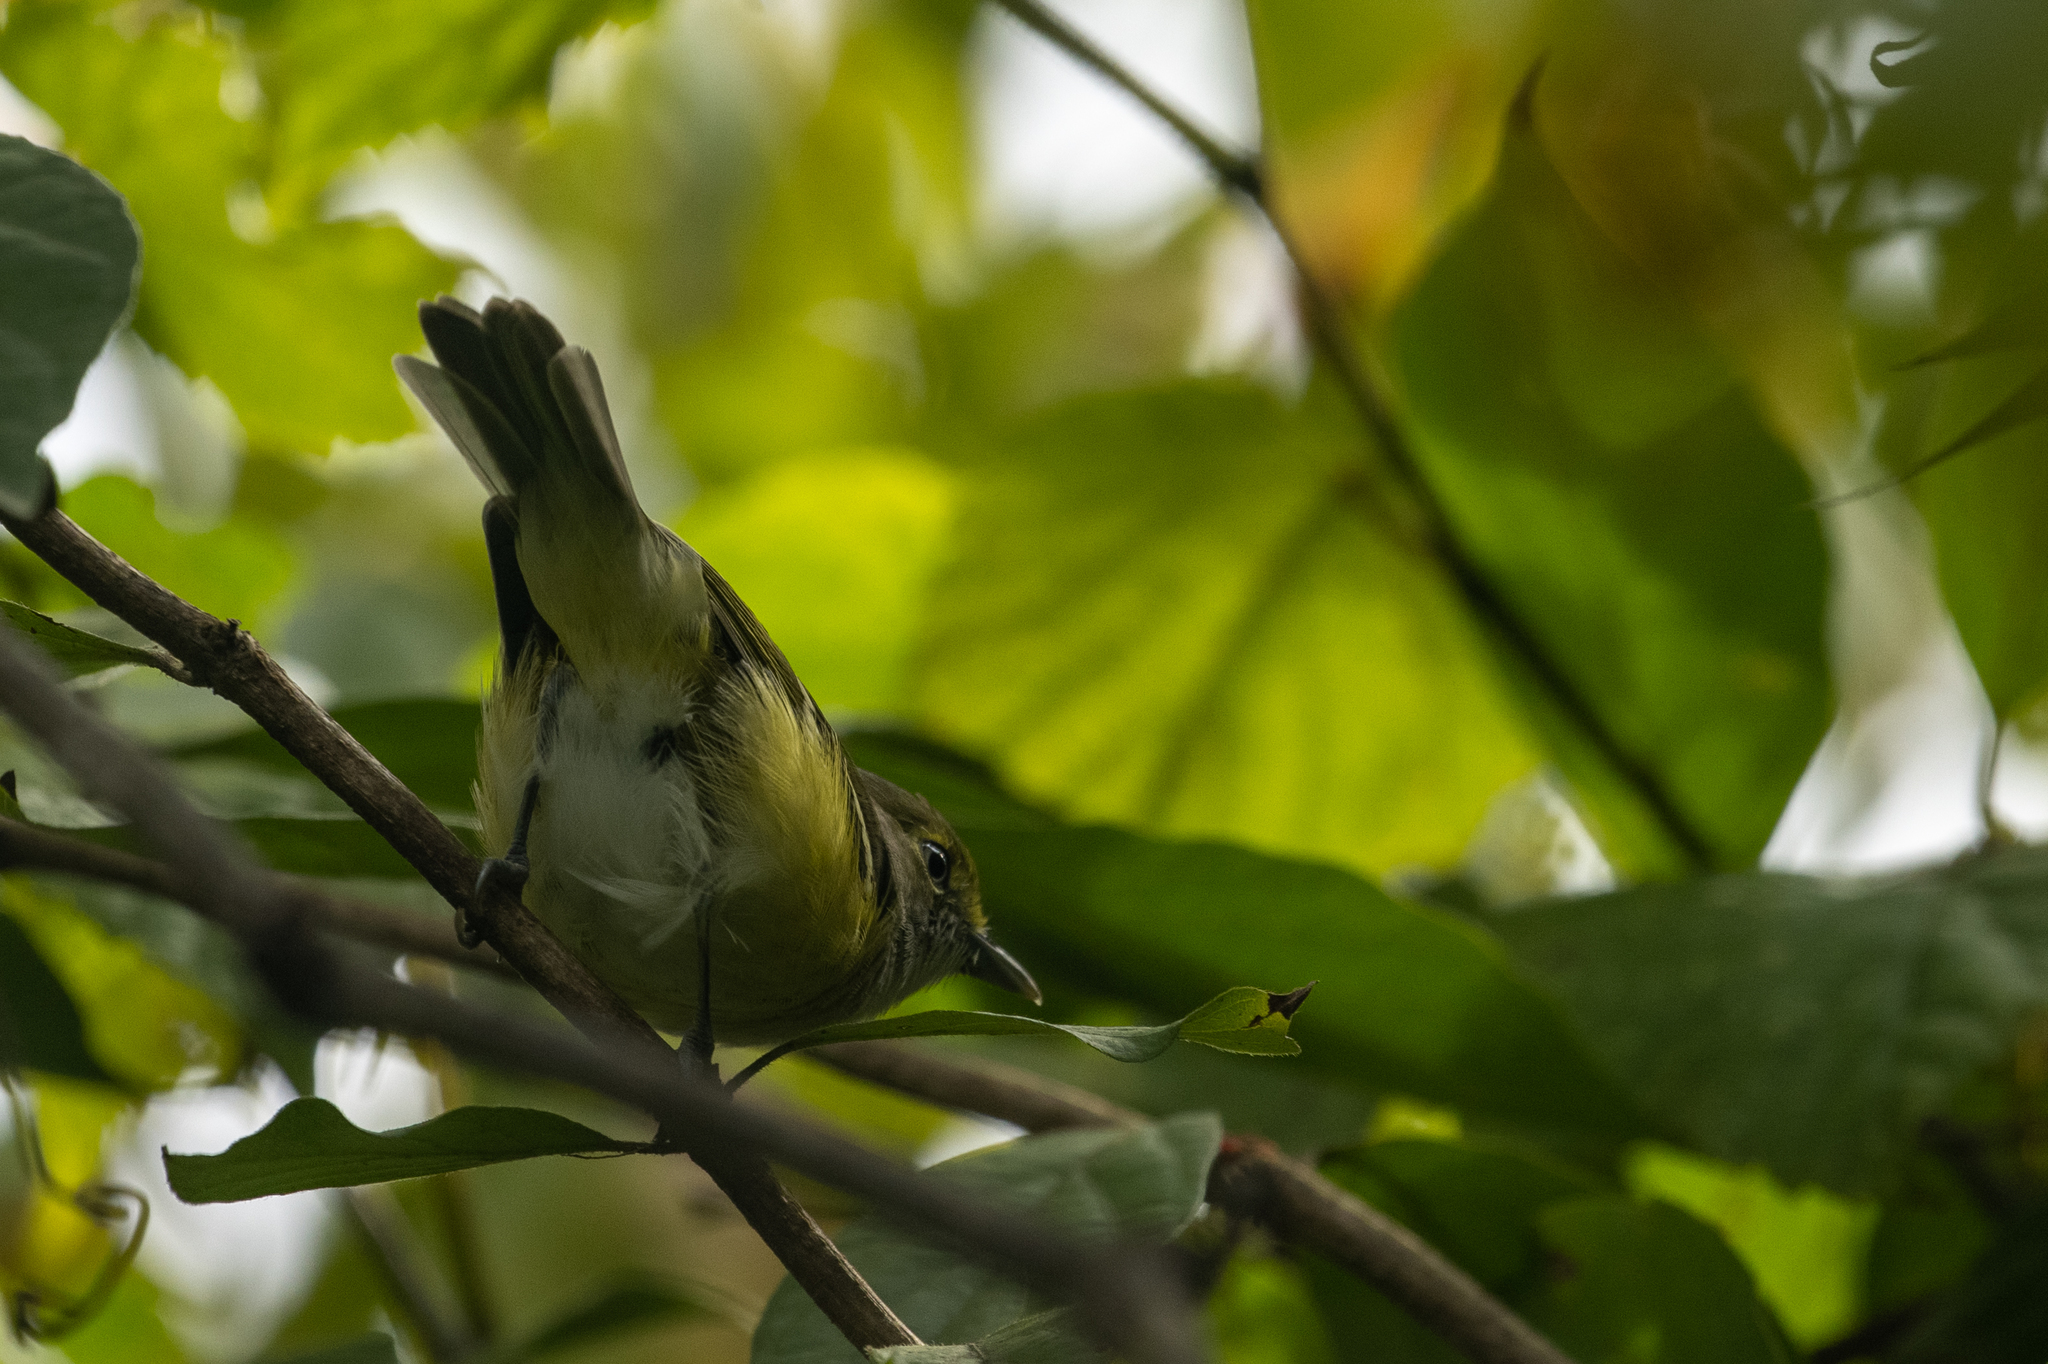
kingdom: Animalia
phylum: Chordata
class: Aves
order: Passeriformes
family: Vireonidae
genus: Vireo
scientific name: Vireo griseus
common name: White-eyed vireo
